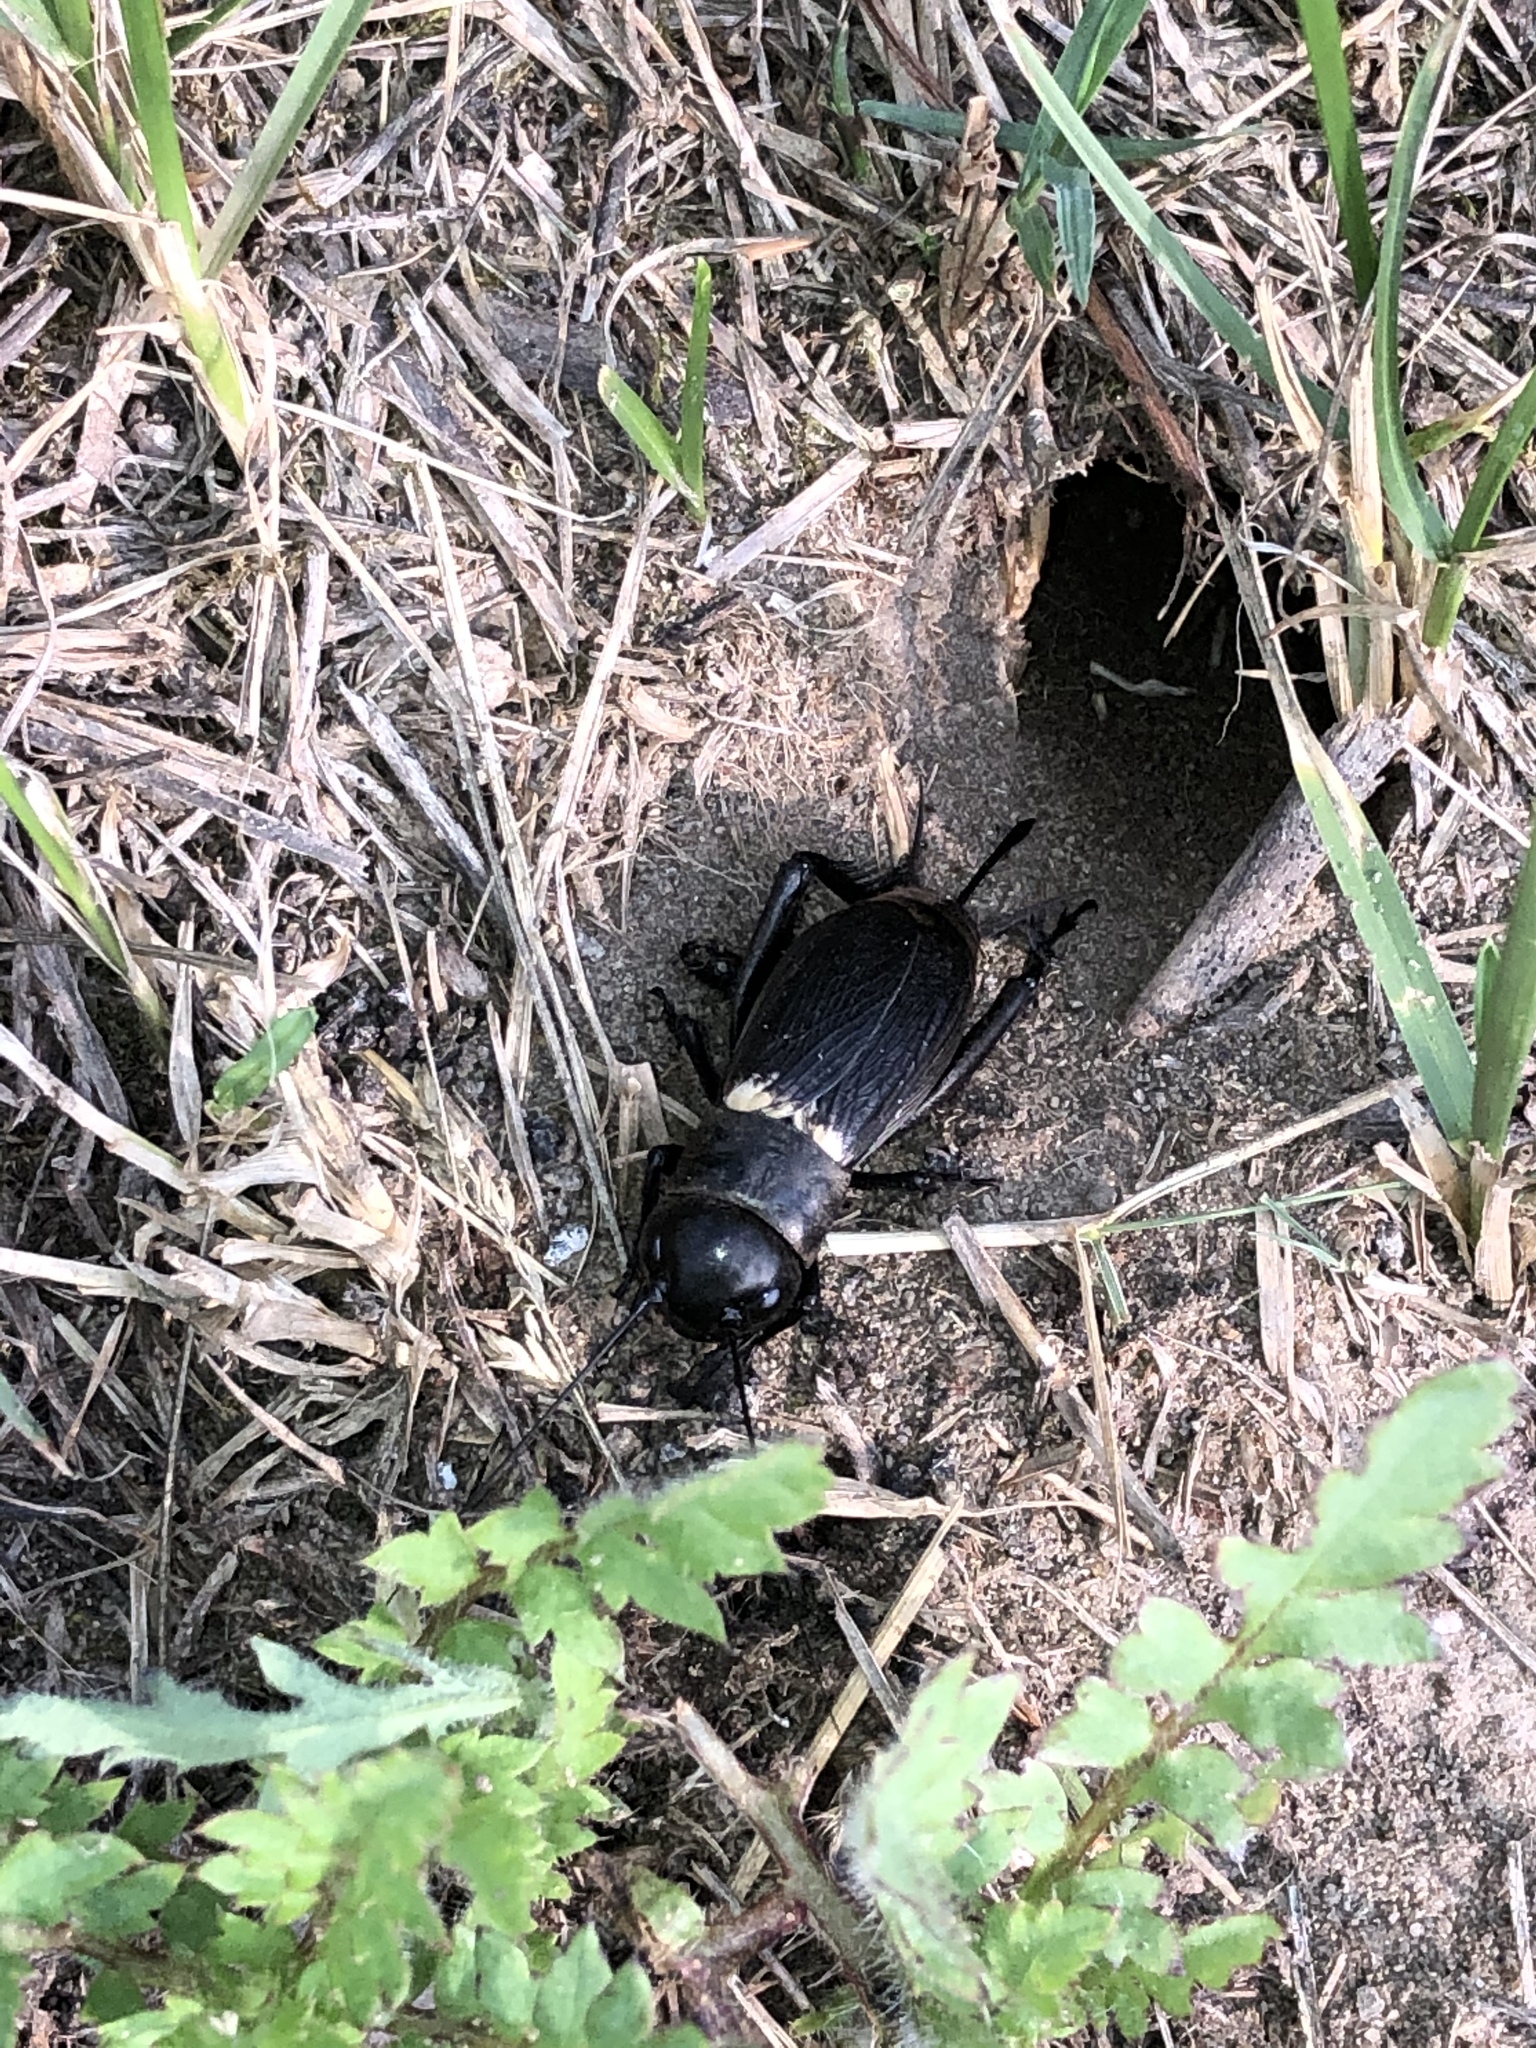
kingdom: Animalia
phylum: Arthropoda
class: Insecta
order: Orthoptera
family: Gryllidae
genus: Gryllus
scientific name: Gryllus campestris
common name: Field cricket
